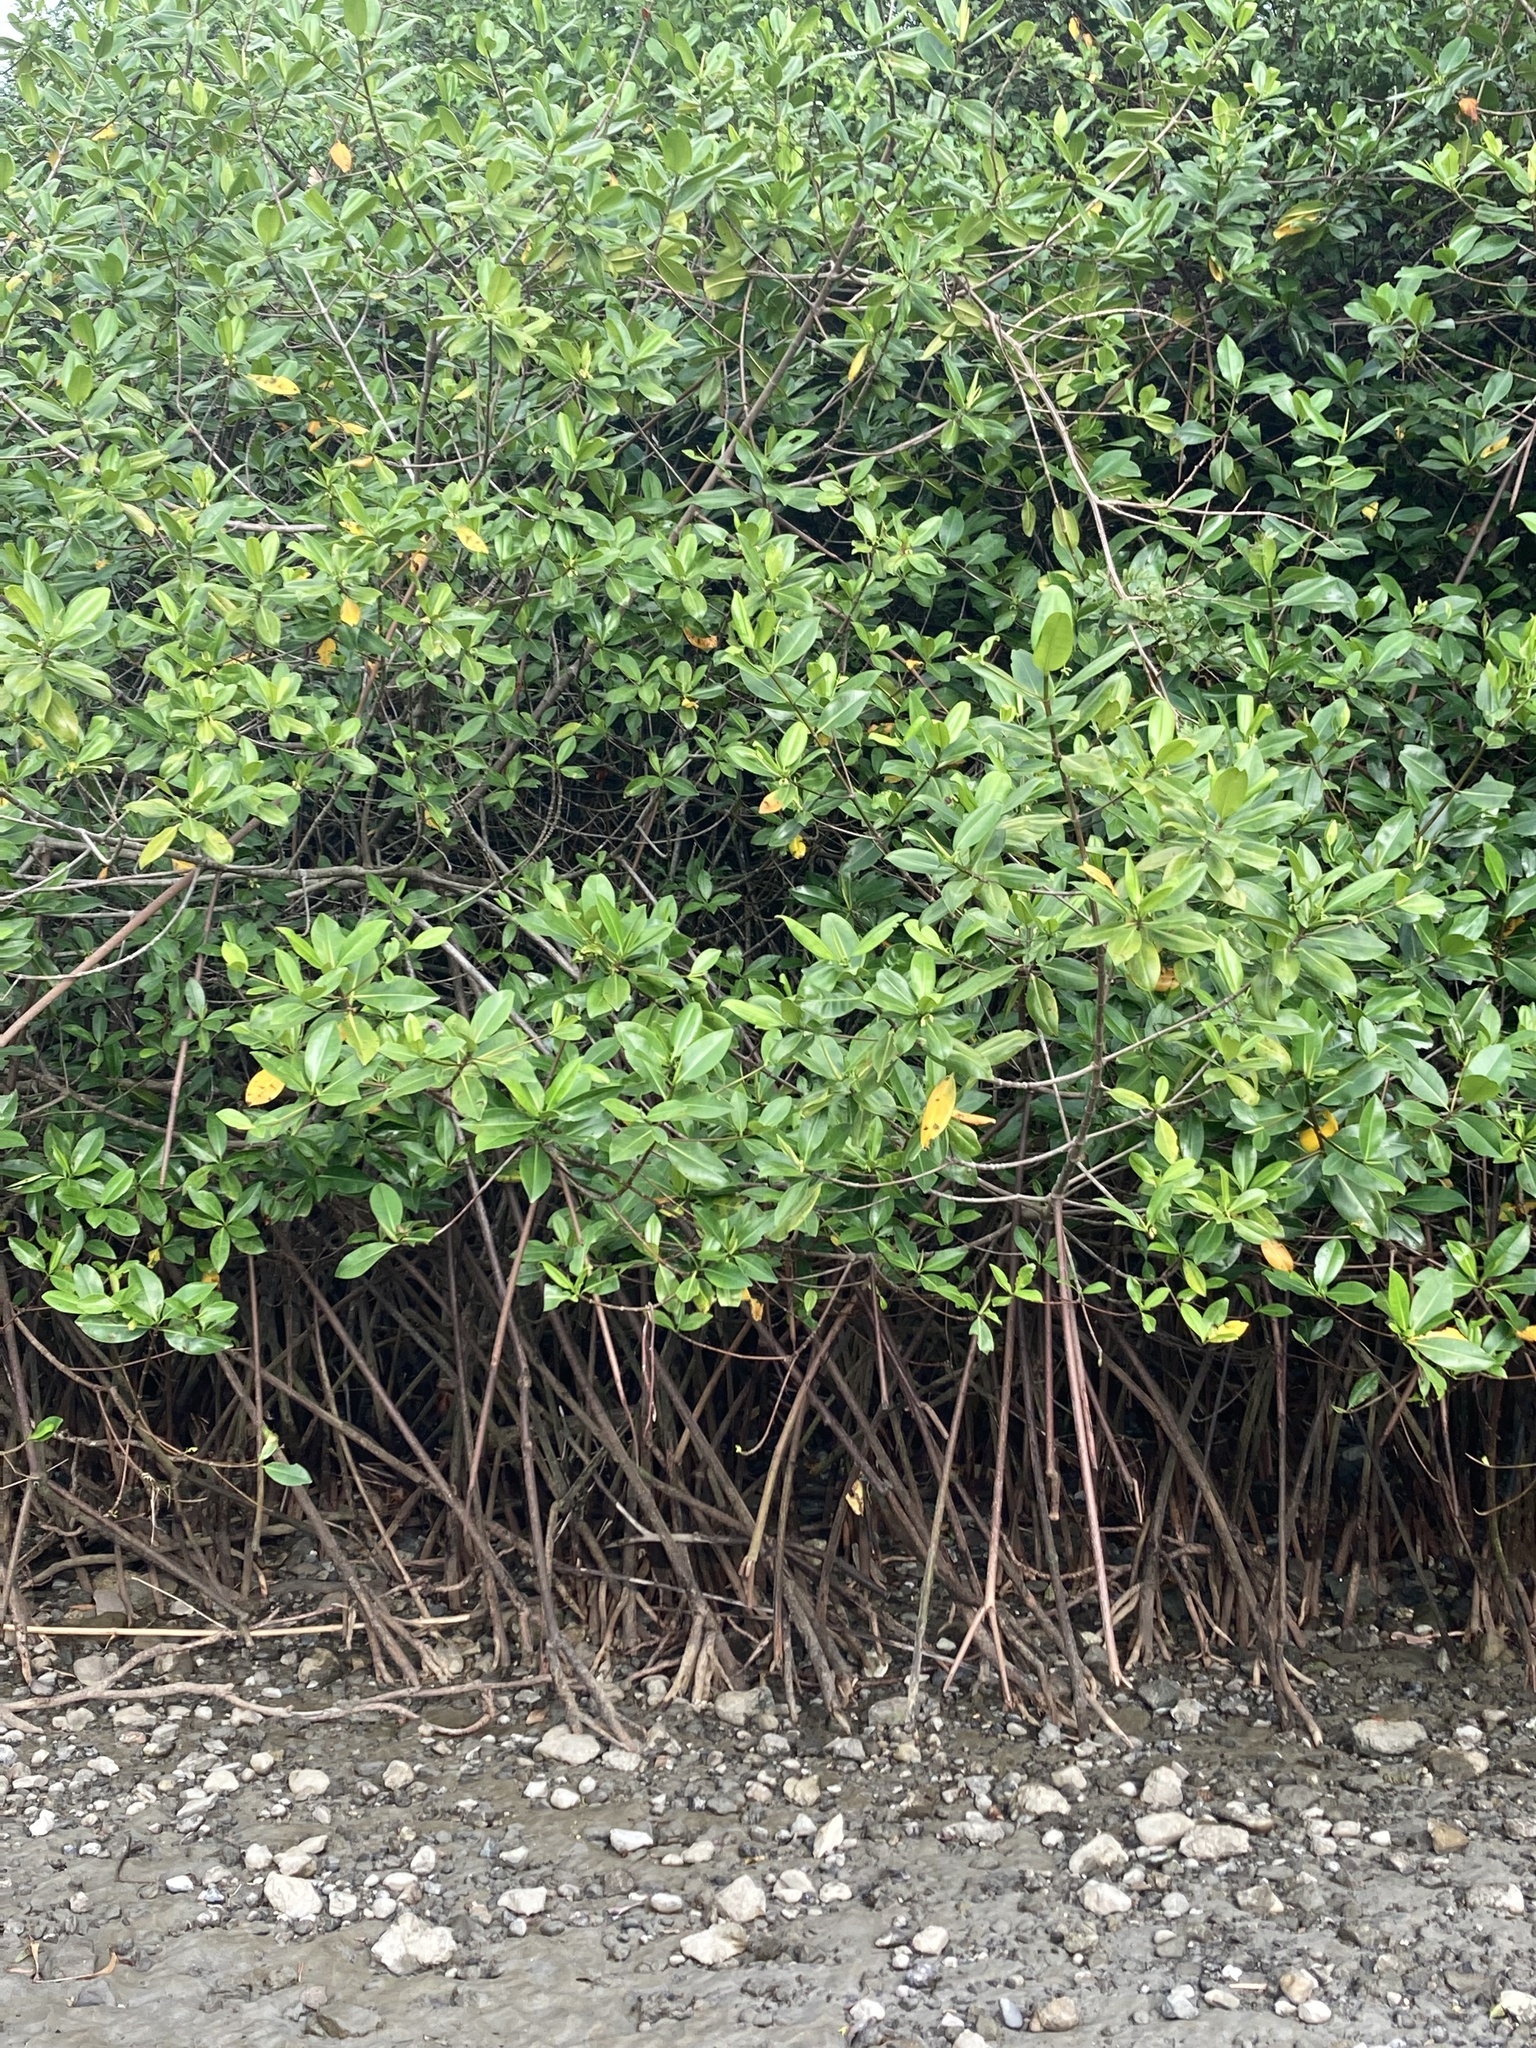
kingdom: Plantae
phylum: Tracheophyta
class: Magnoliopsida
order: Malpighiales
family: Rhizophoraceae
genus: Rhizophora
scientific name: Rhizophora mangle
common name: Red mangrove
